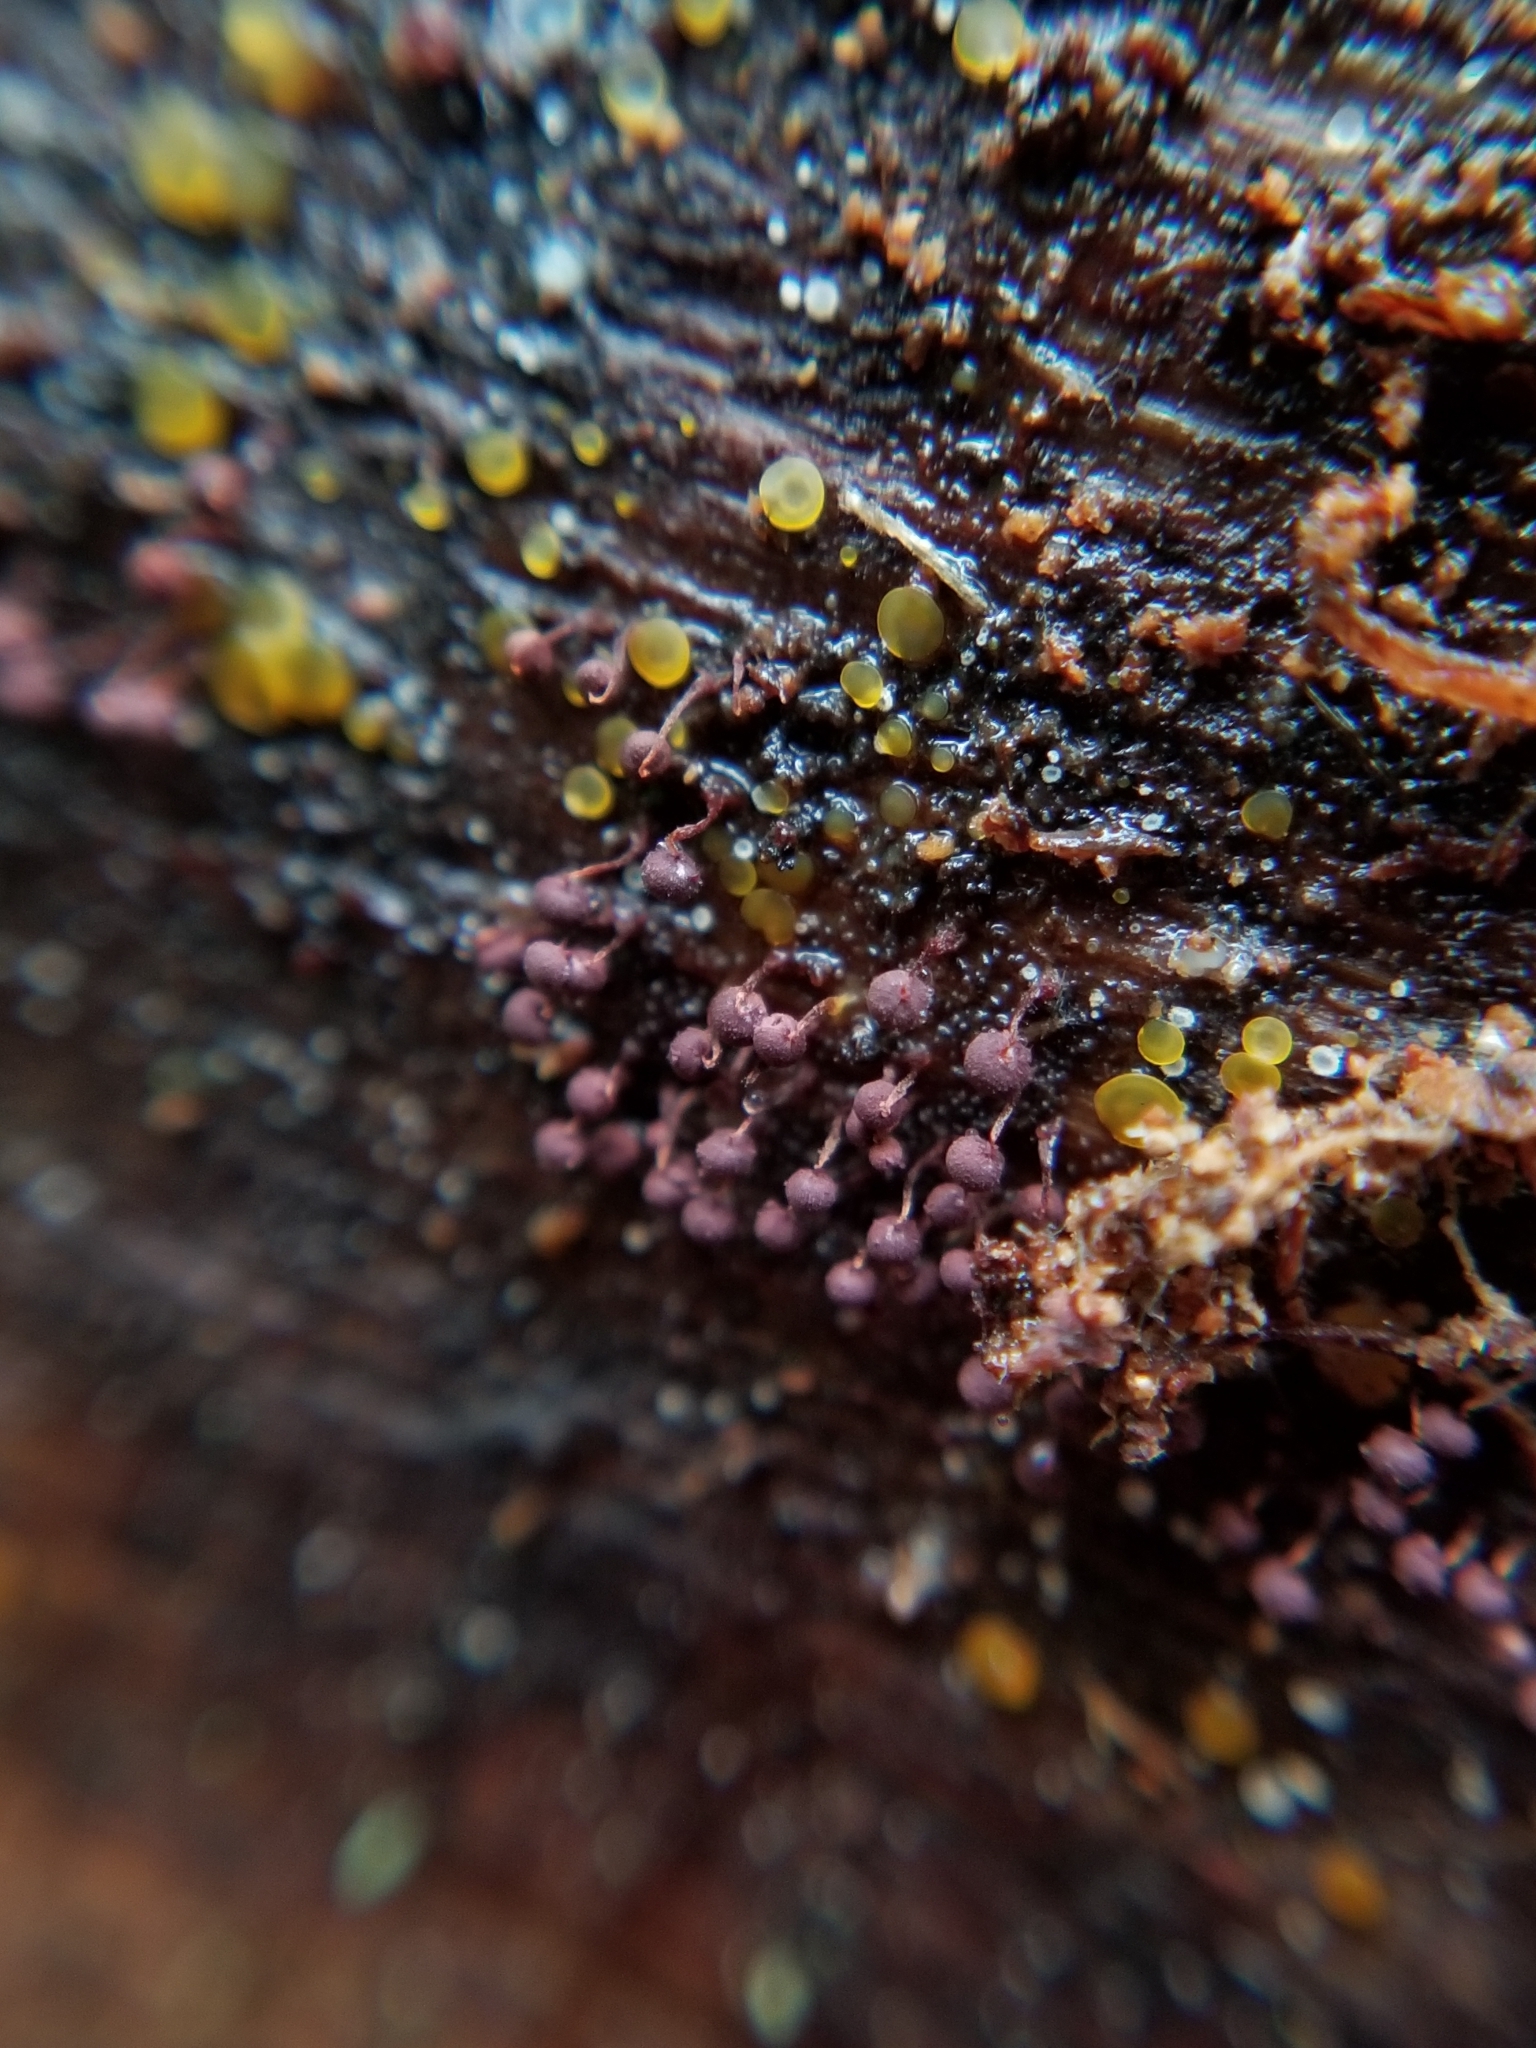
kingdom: Protozoa
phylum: Mycetozoa
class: Myxomycetes
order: Cribrariales
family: Cribrariaceae
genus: Cribraria
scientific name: Cribraria cancellata
